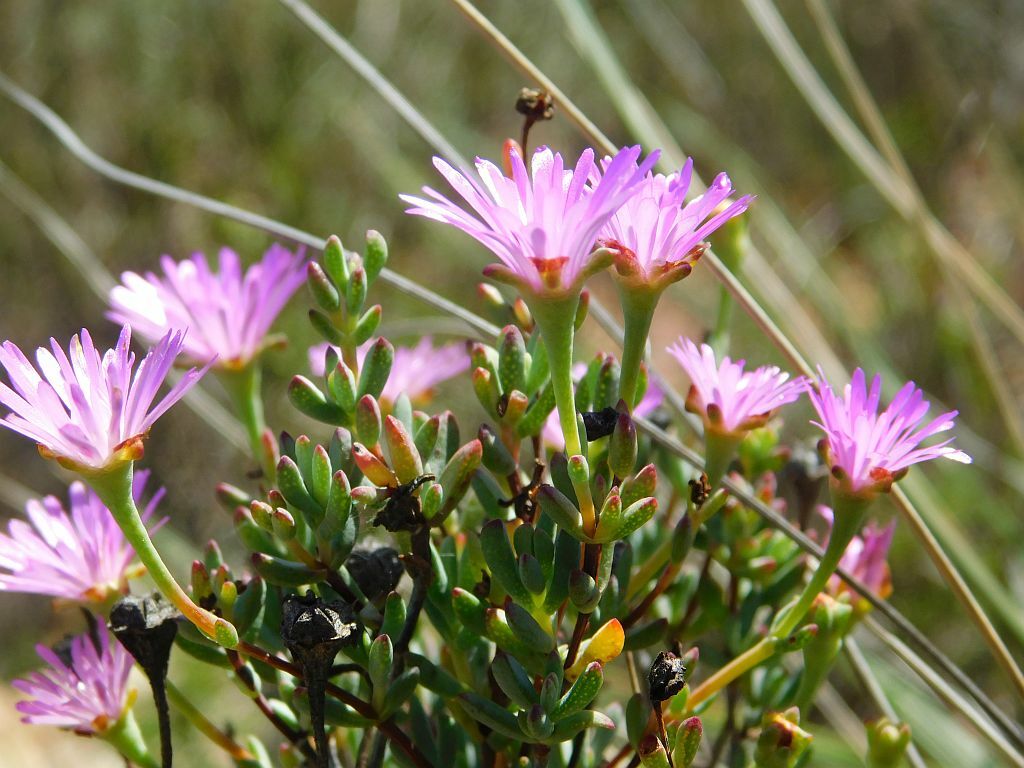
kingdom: Plantae
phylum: Tracheophyta
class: Magnoliopsida
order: Caryophyllales
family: Aizoaceae
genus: Lampranthus
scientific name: Lampranthus falcatus
